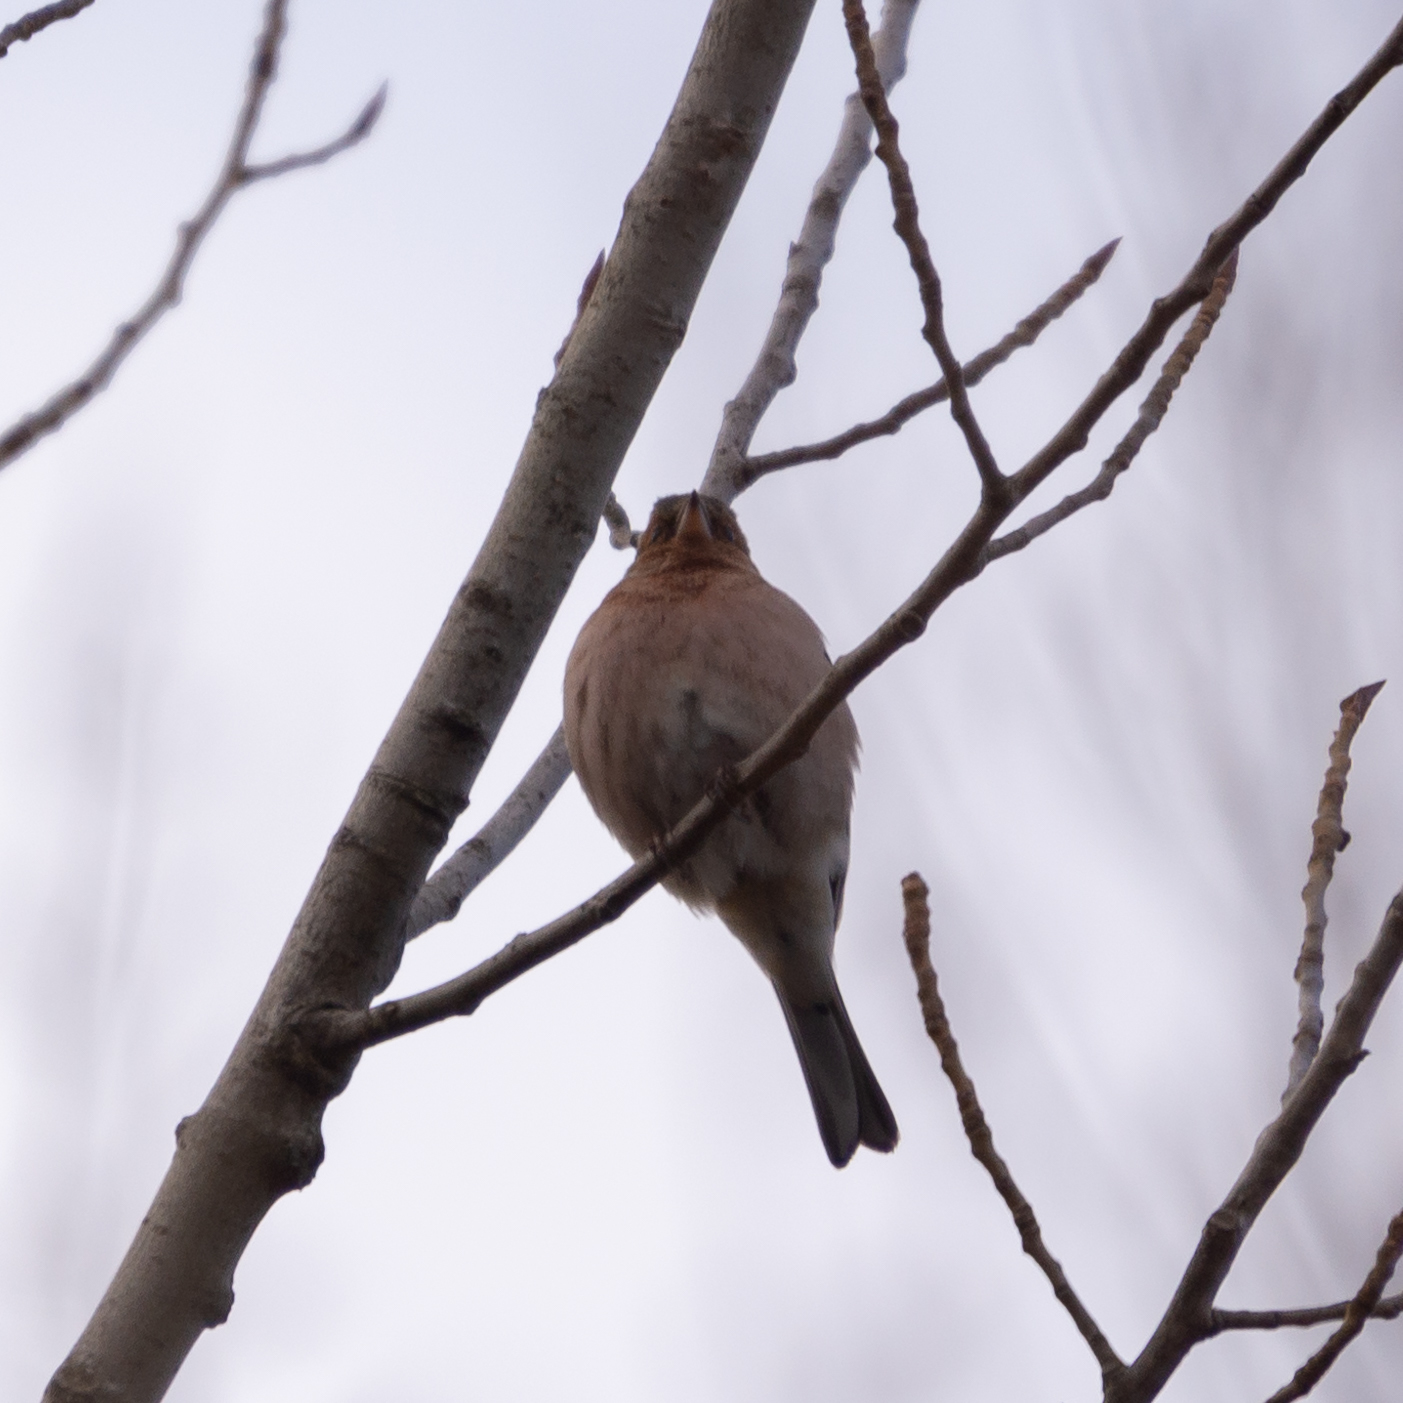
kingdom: Animalia
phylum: Chordata
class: Aves
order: Passeriformes
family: Fringillidae
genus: Fringilla
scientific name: Fringilla coelebs
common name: Common chaffinch
